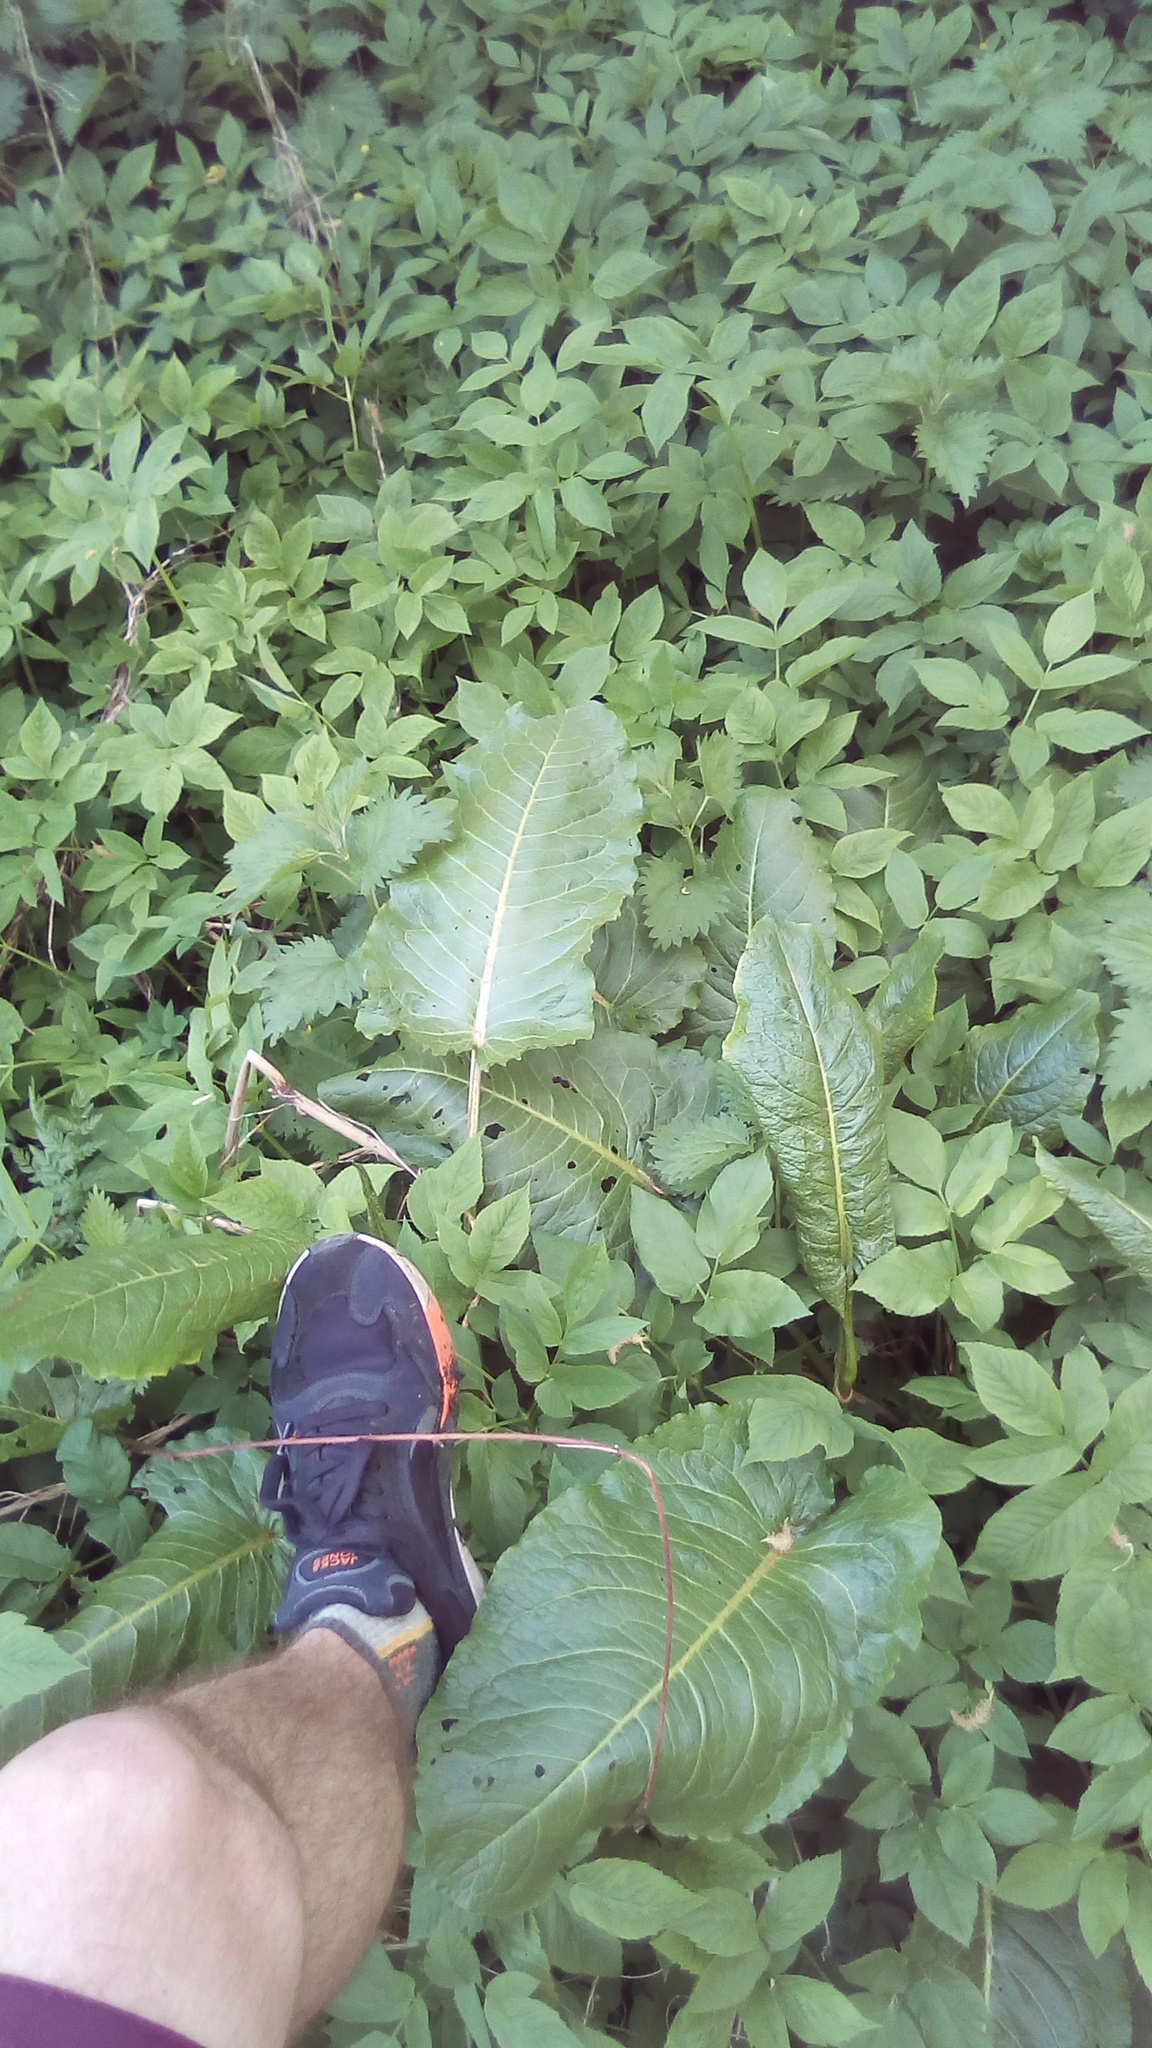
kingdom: Plantae
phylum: Tracheophyta
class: Magnoliopsida
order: Caryophyllales
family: Polygonaceae
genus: Rumex
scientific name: Rumex obtusifolius
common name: Bitter dock
